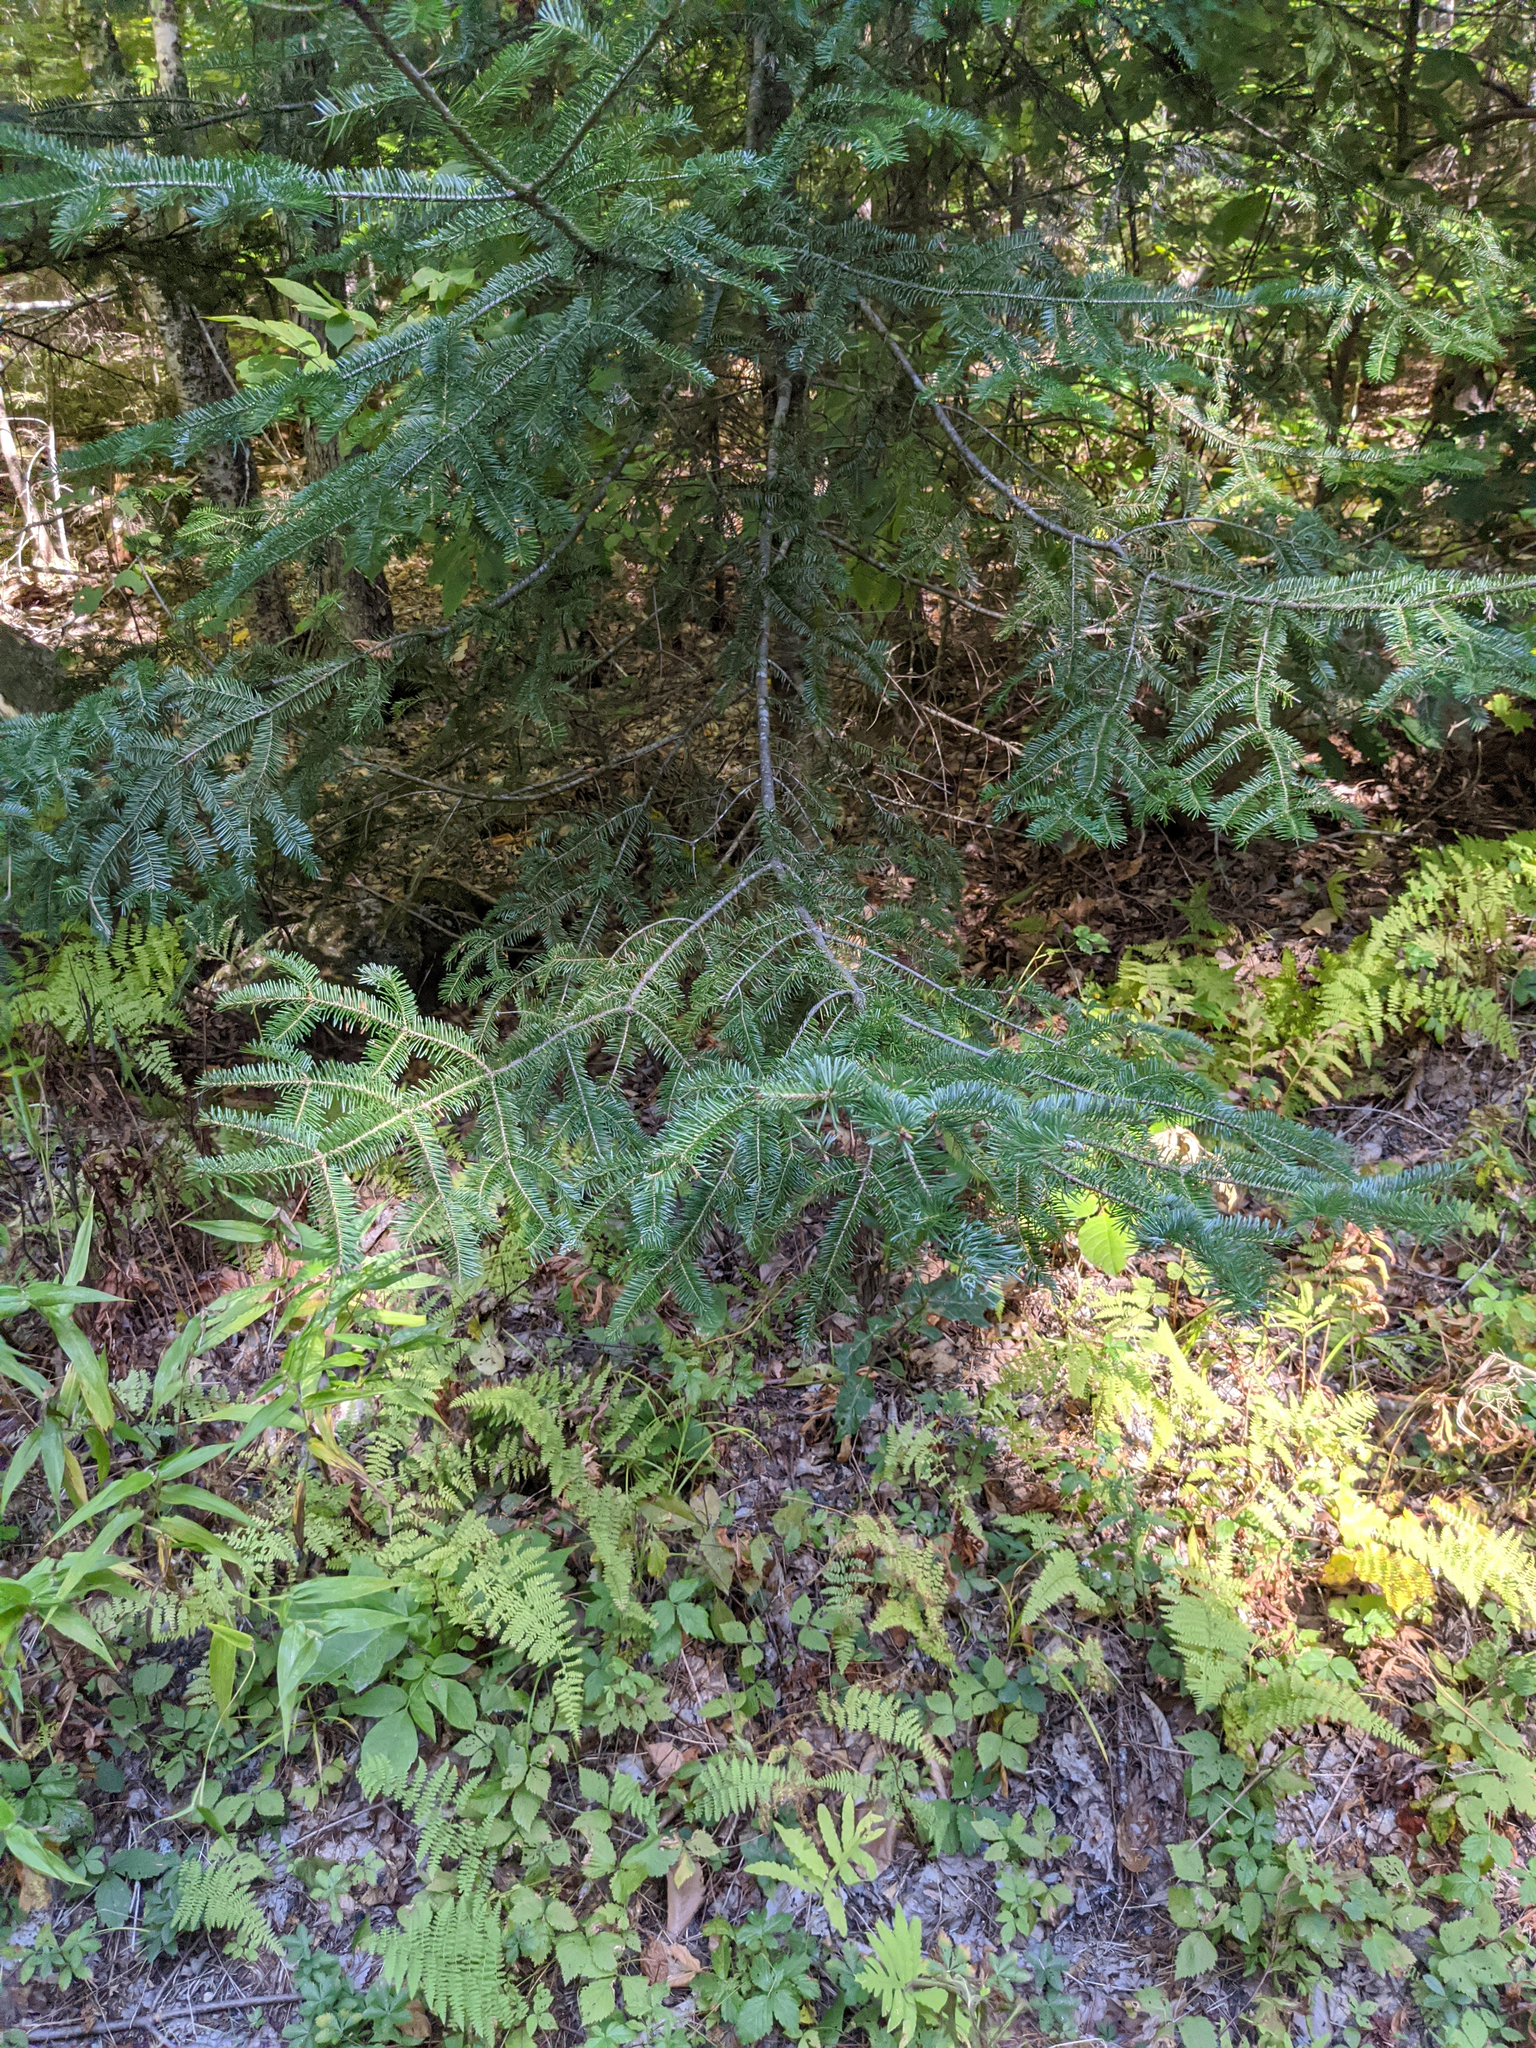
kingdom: Plantae
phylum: Tracheophyta
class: Pinopsida
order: Pinales
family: Pinaceae
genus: Abies
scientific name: Abies balsamea
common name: Balsam fir
